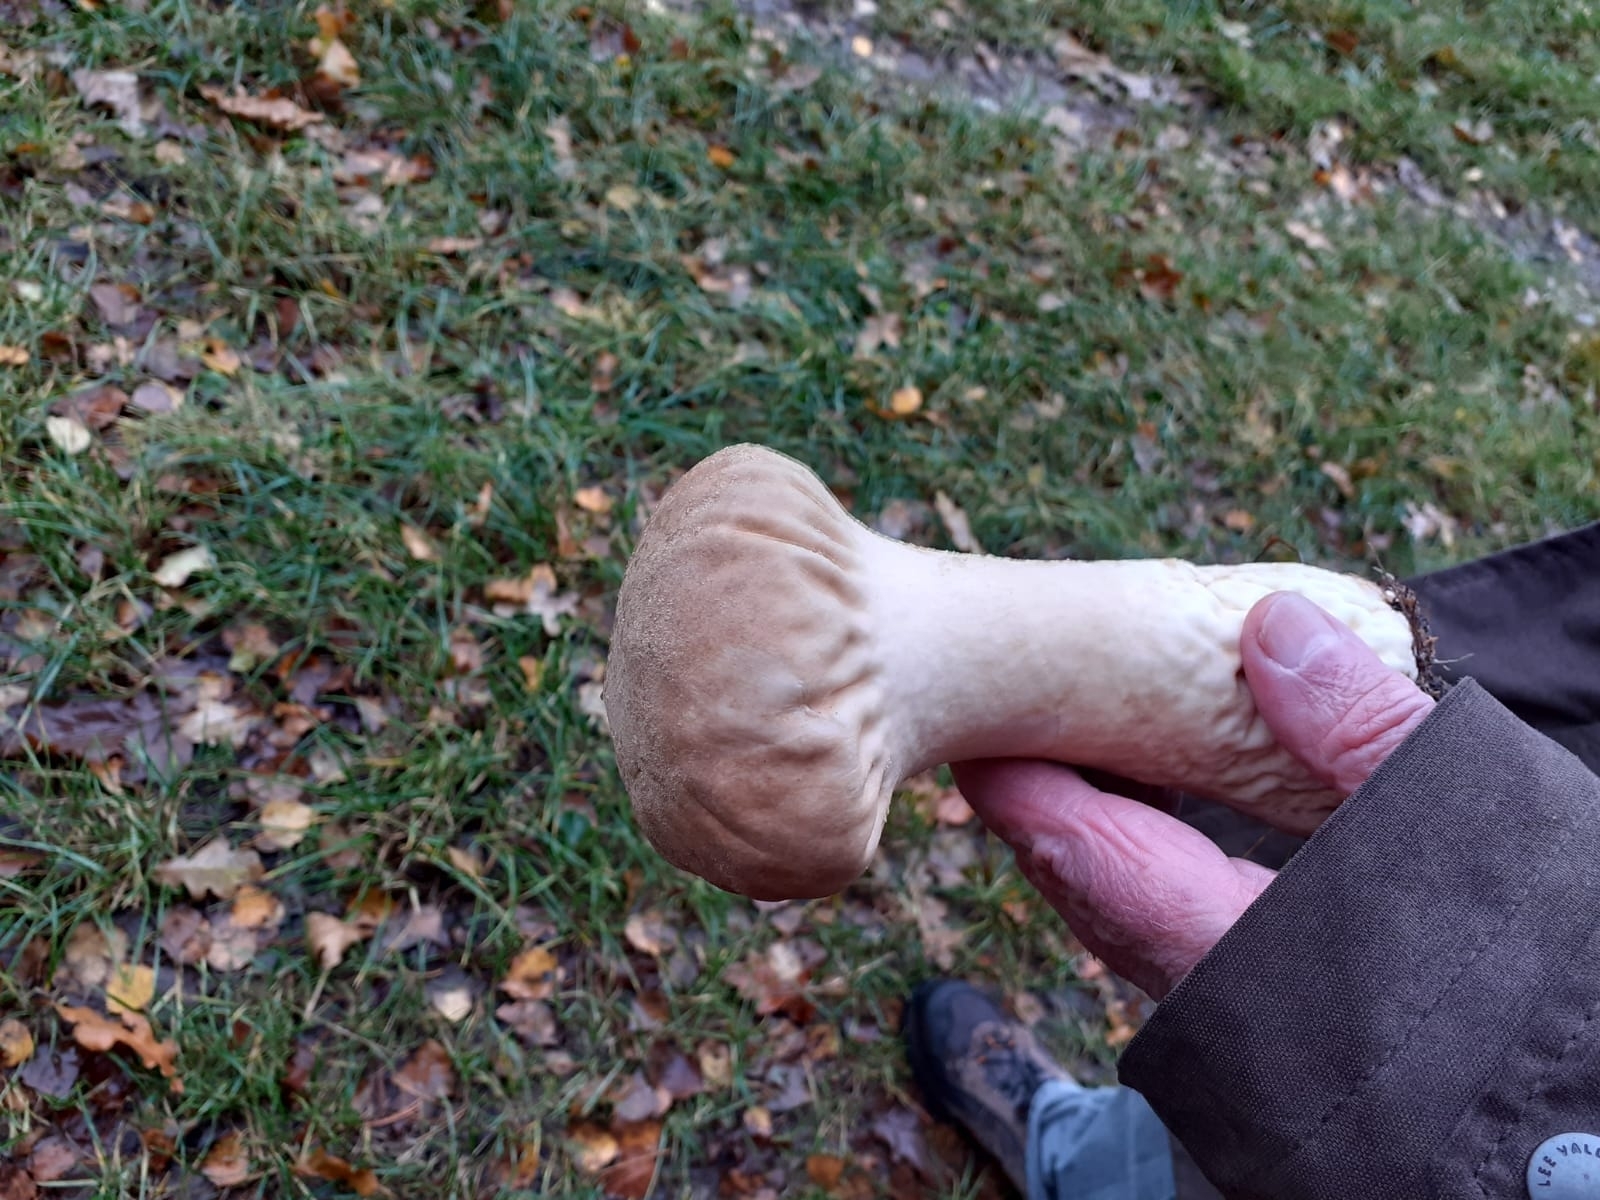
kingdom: Fungi
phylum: Basidiomycota
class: Agaricomycetes
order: Agaricales
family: Lycoperdaceae
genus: Lycoperdon
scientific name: Lycoperdon excipuliforme
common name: Pestle puffball
